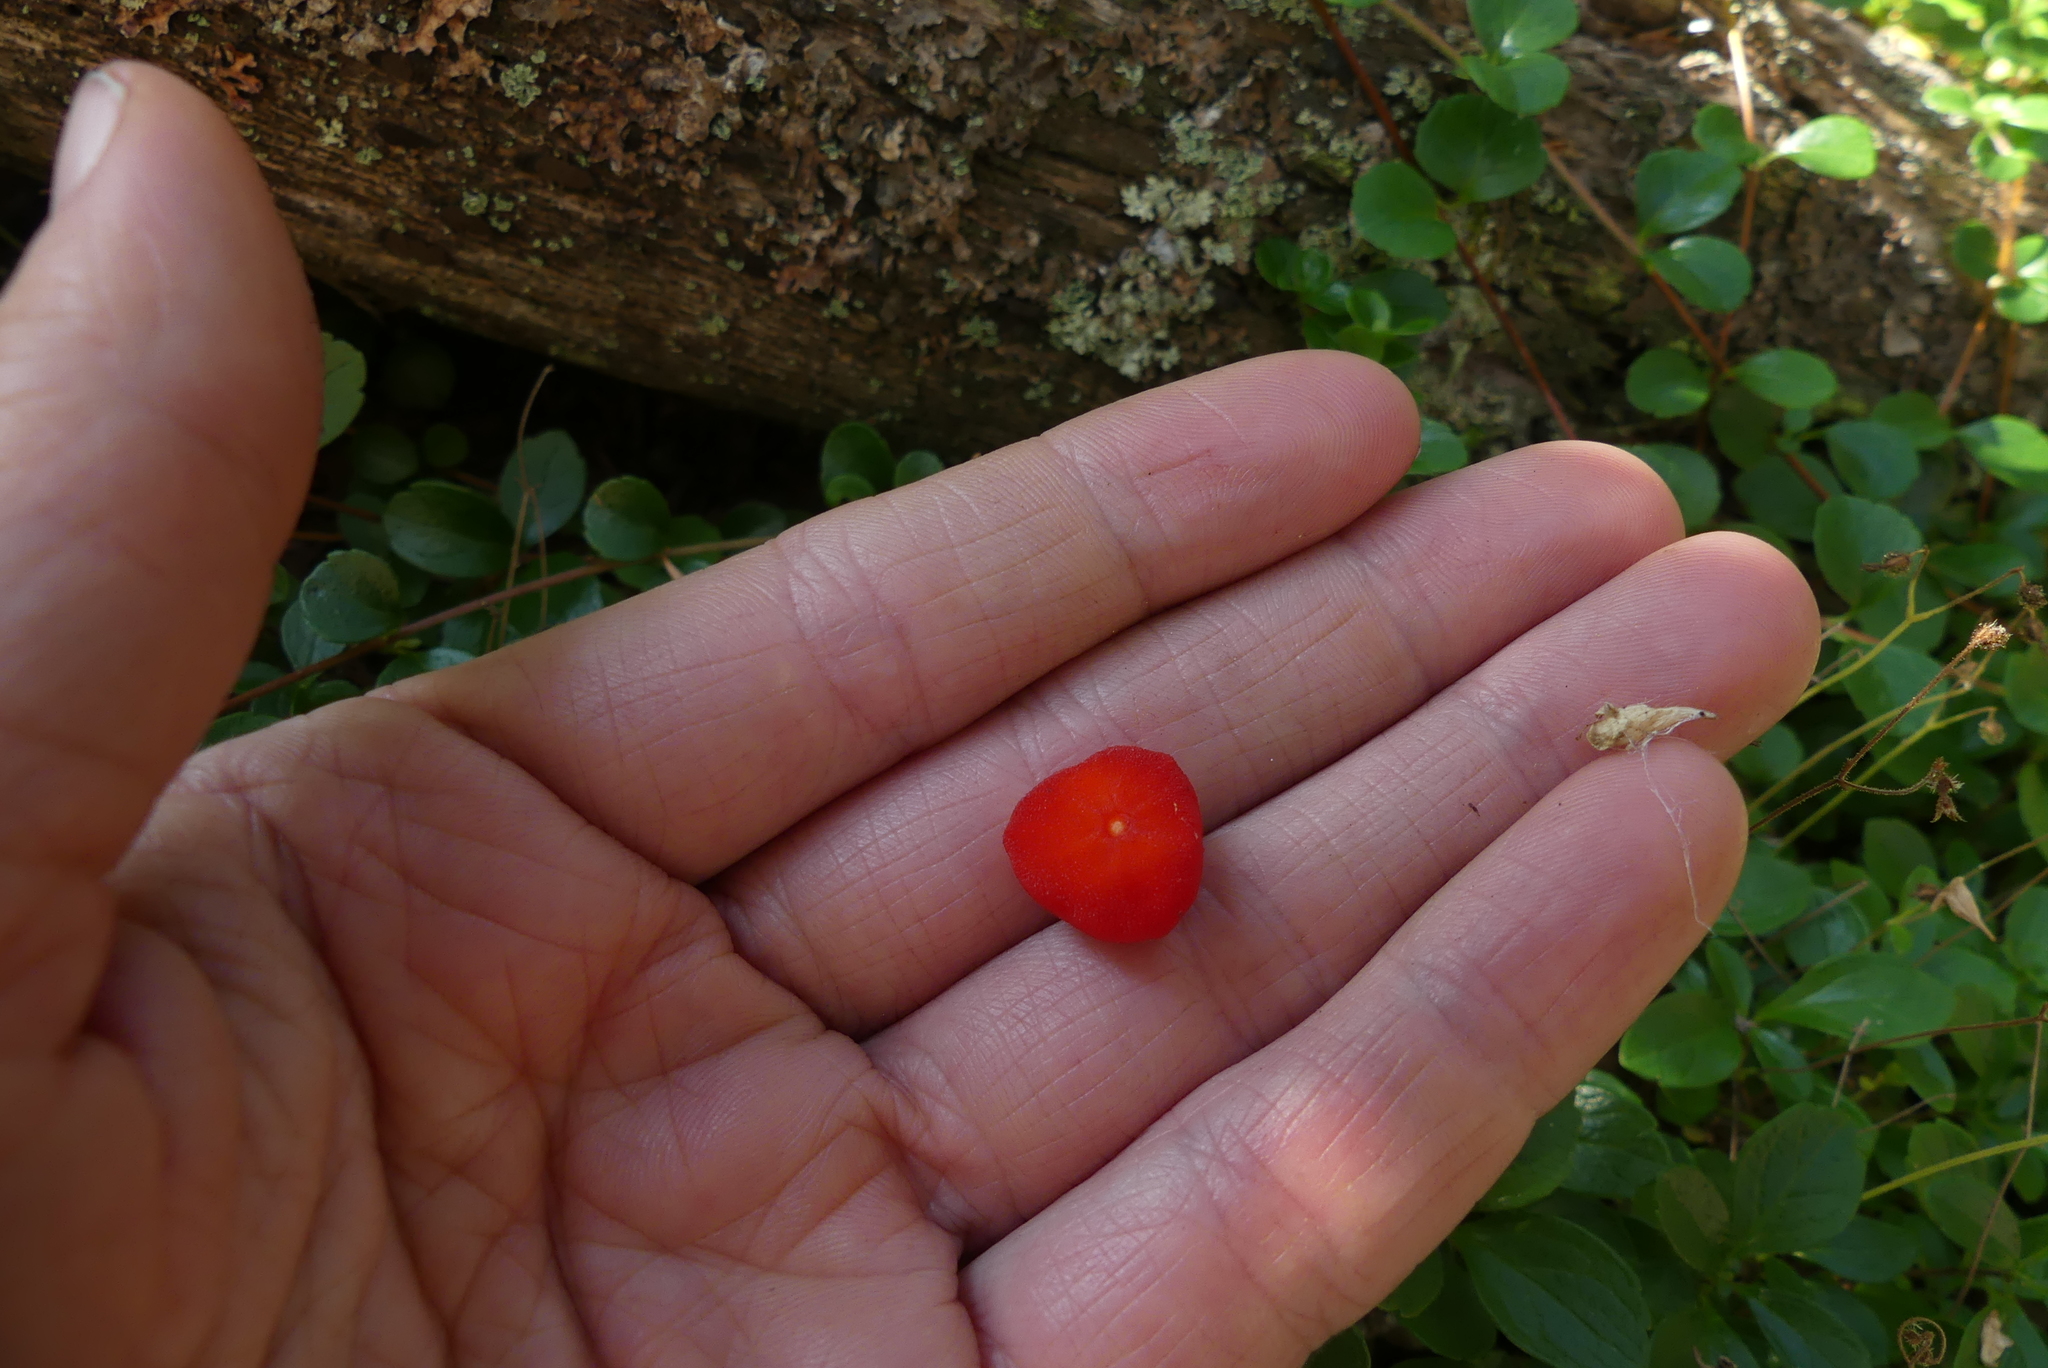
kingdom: Plantae
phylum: Tracheophyta
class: Liliopsida
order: Liliales
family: Liliaceae
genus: Prosartes
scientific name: Prosartes trachycarpa
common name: Rough-fruit fairy-bells
